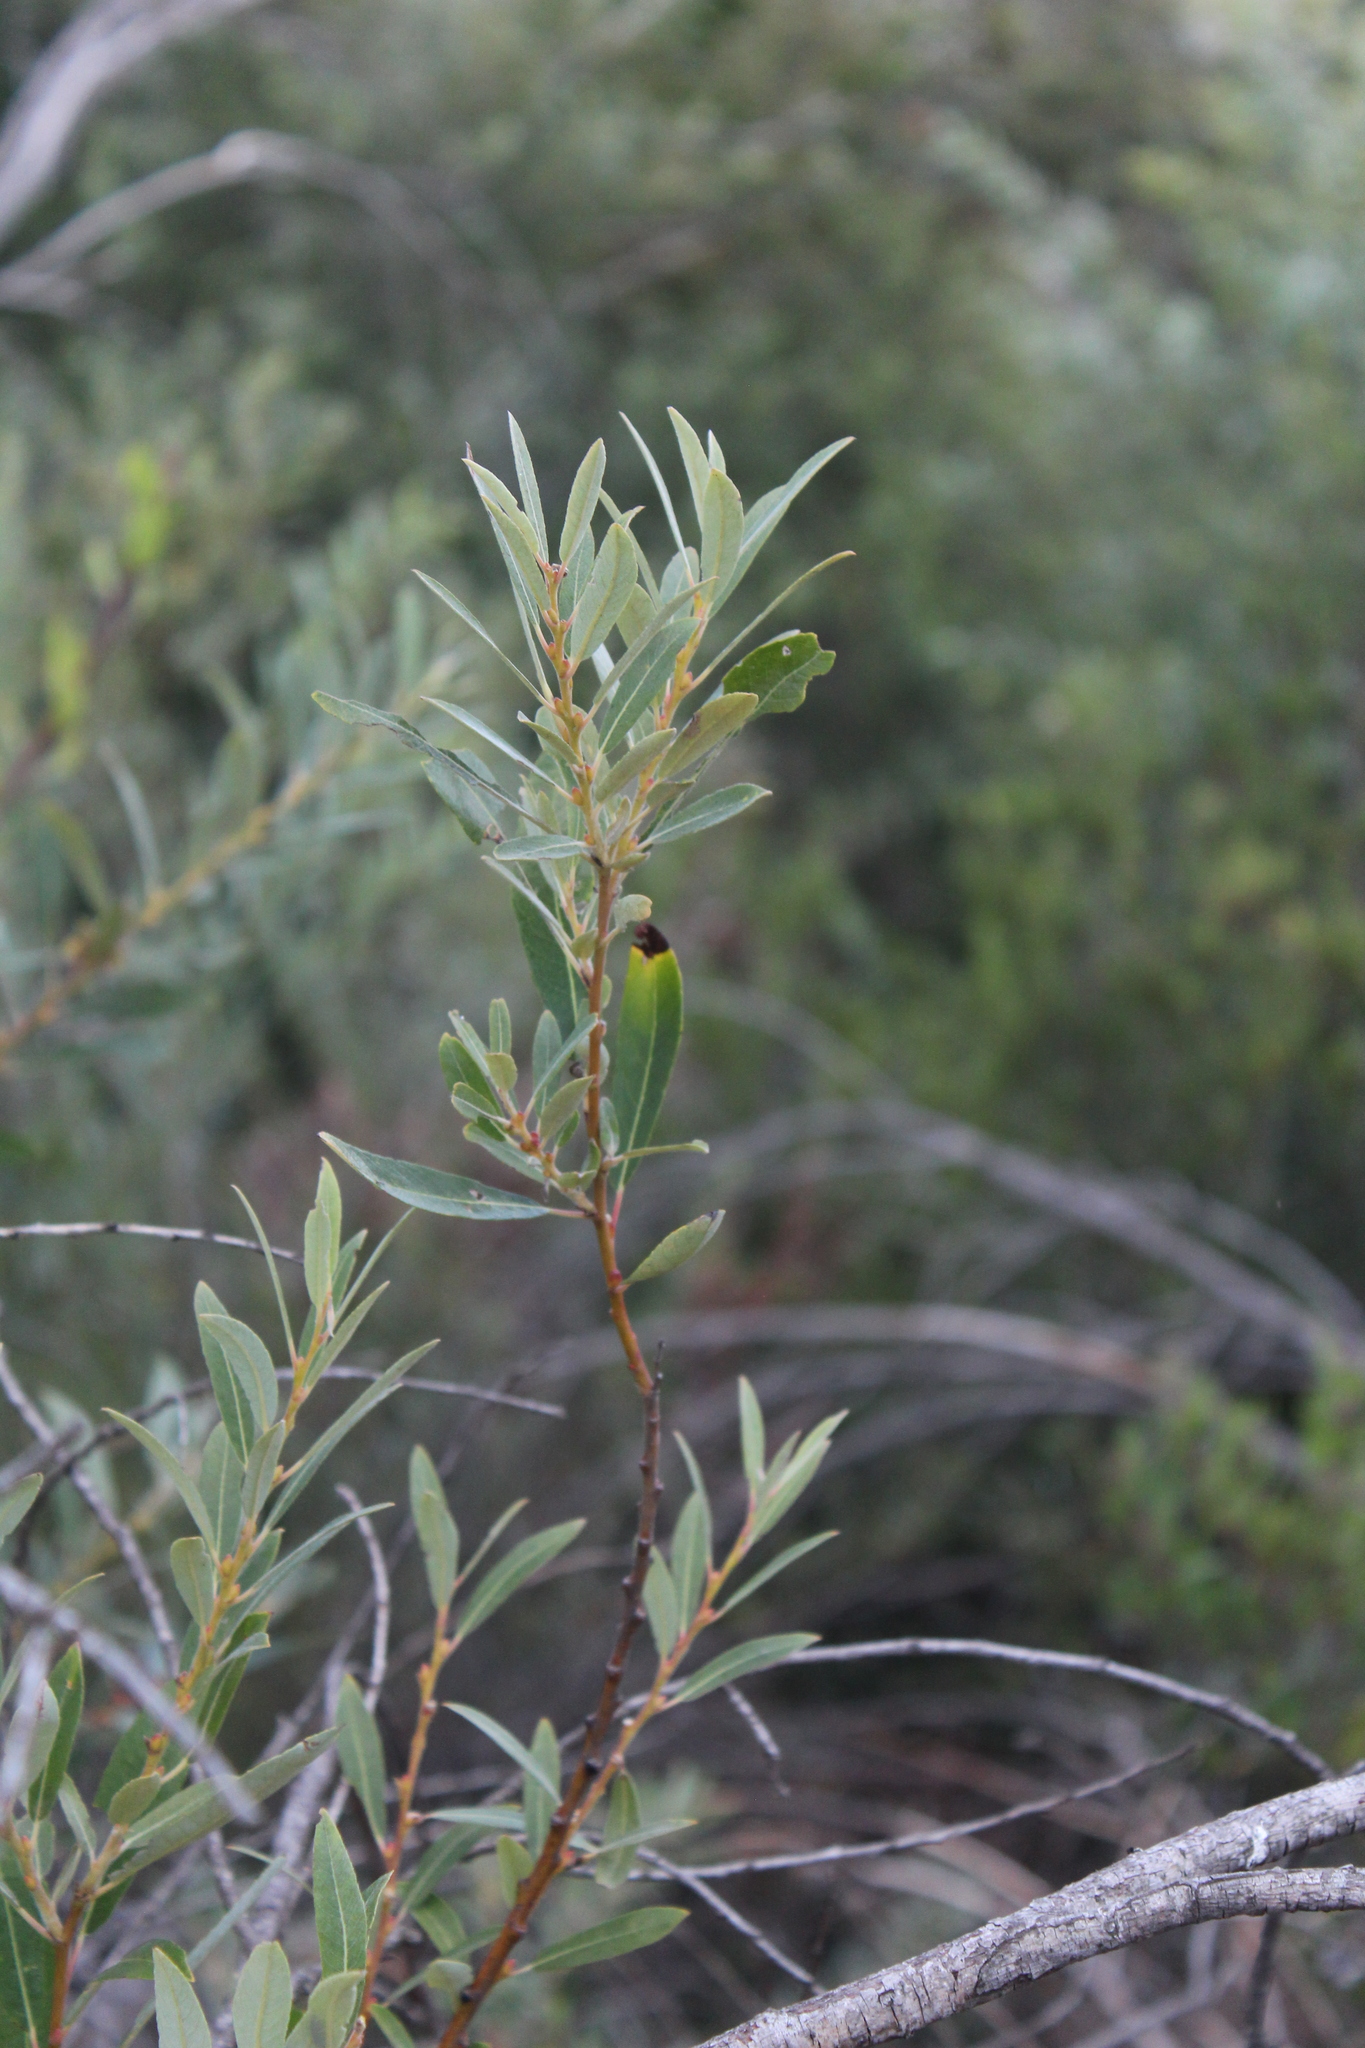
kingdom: Plantae
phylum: Tracheophyta
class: Magnoliopsida
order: Asterales
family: Asteraceae
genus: Baccharis
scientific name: Baccharis salicifolia
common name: Sticky baccharis
